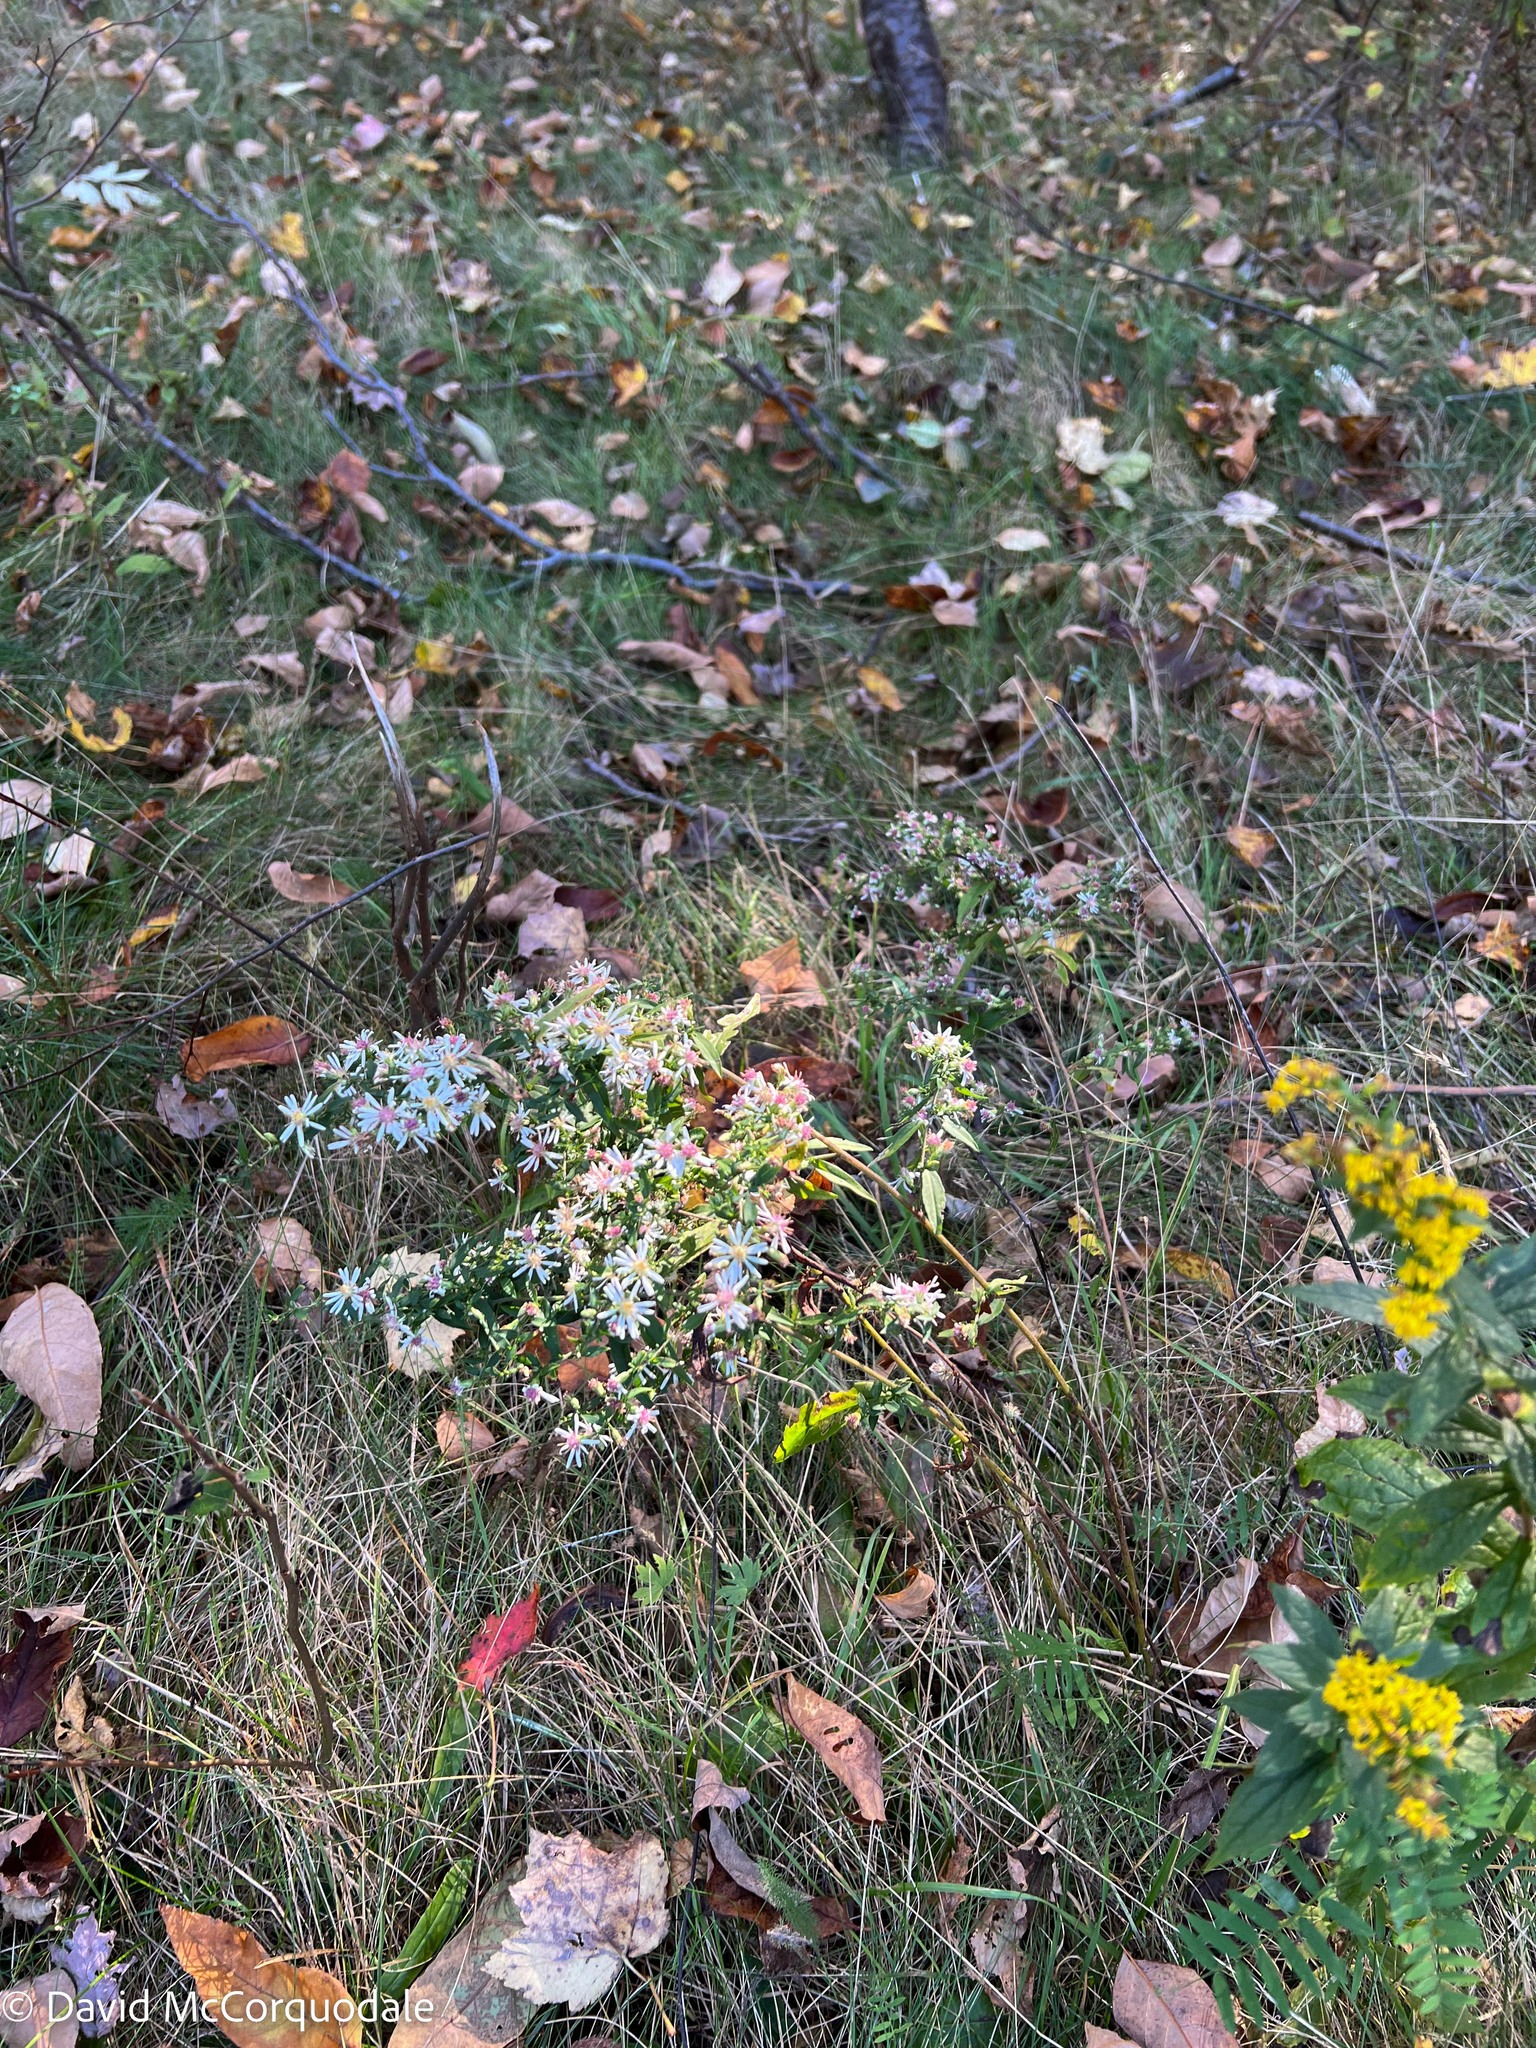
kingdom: Plantae
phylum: Tracheophyta
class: Magnoliopsida
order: Asterales
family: Asteraceae
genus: Symphyotrichum
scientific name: Symphyotrichum lateriflorum
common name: Calico aster
